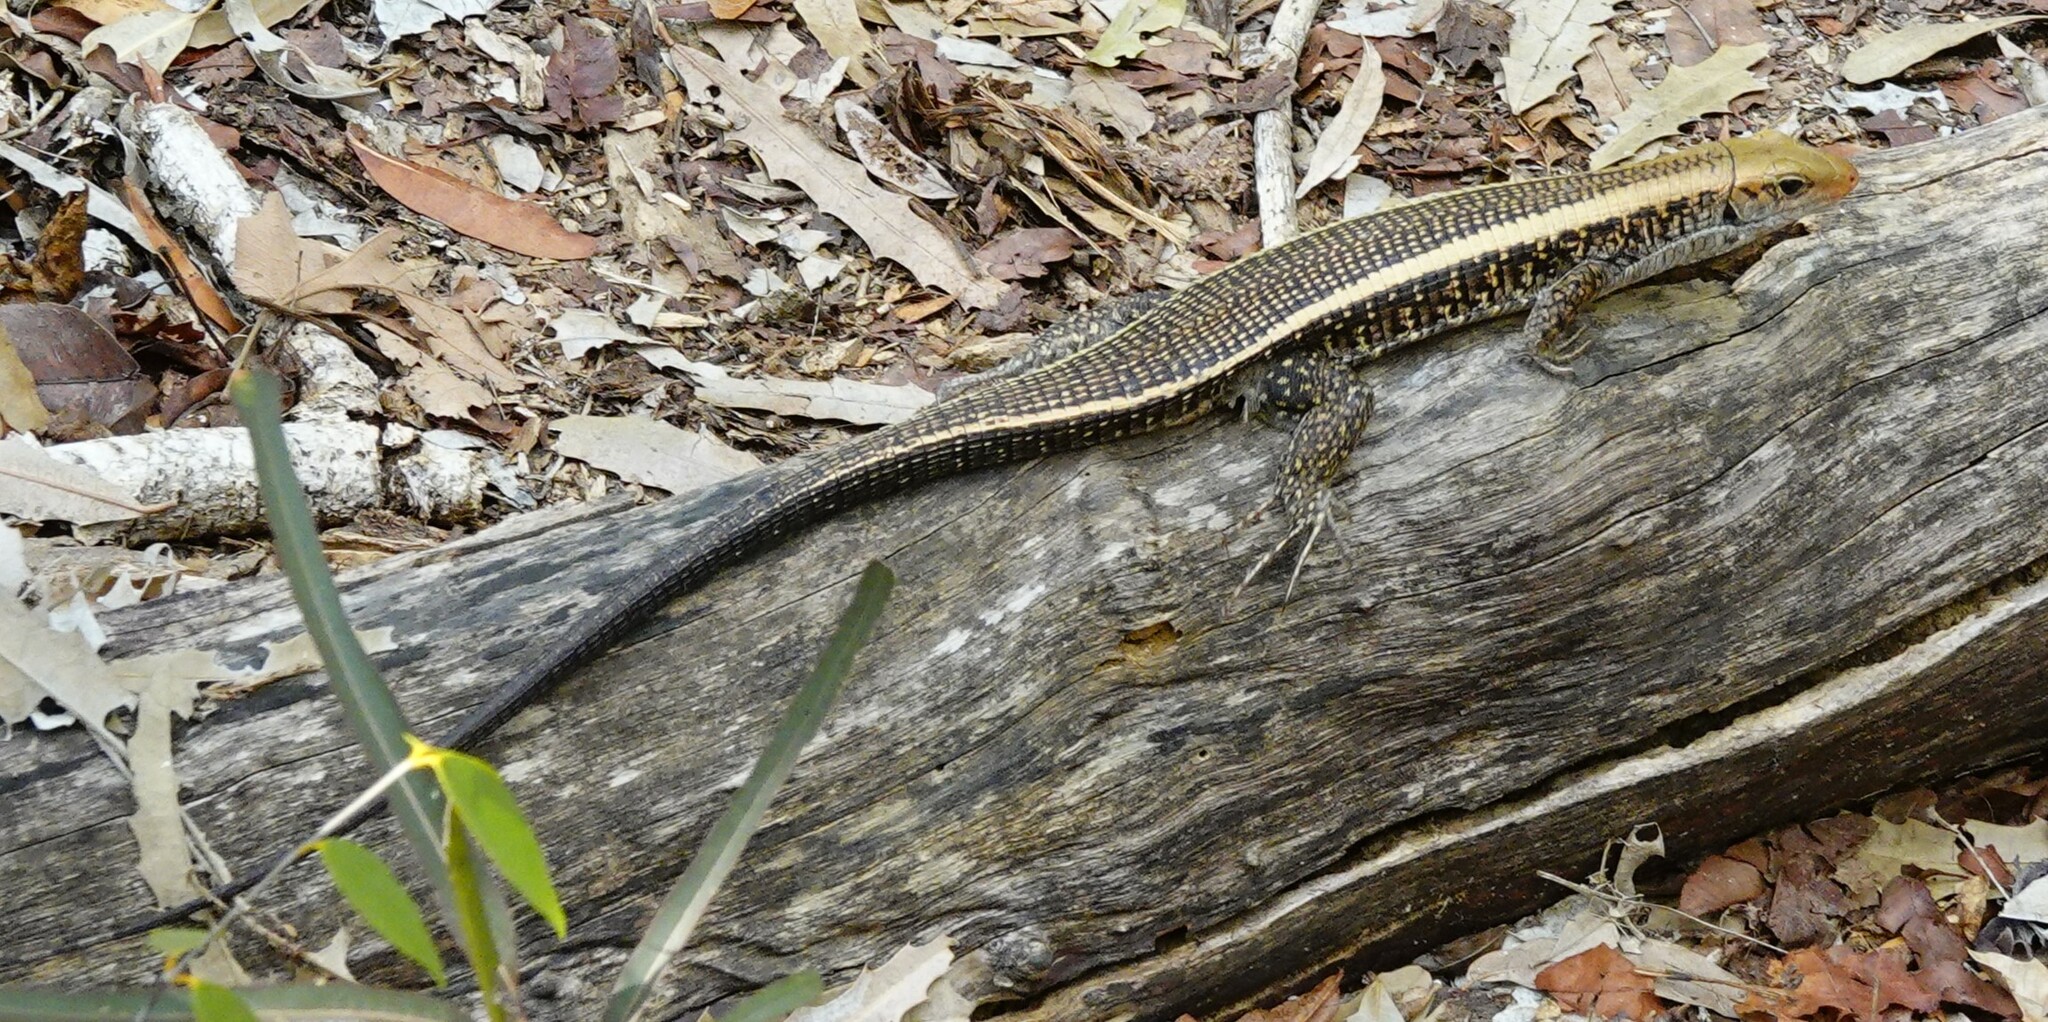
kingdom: Animalia
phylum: Chordata
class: Squamata
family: Gerrhosauridae
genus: Zonosaurus
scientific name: Zonosaurus laticaudatus
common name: Western girdled lizard
